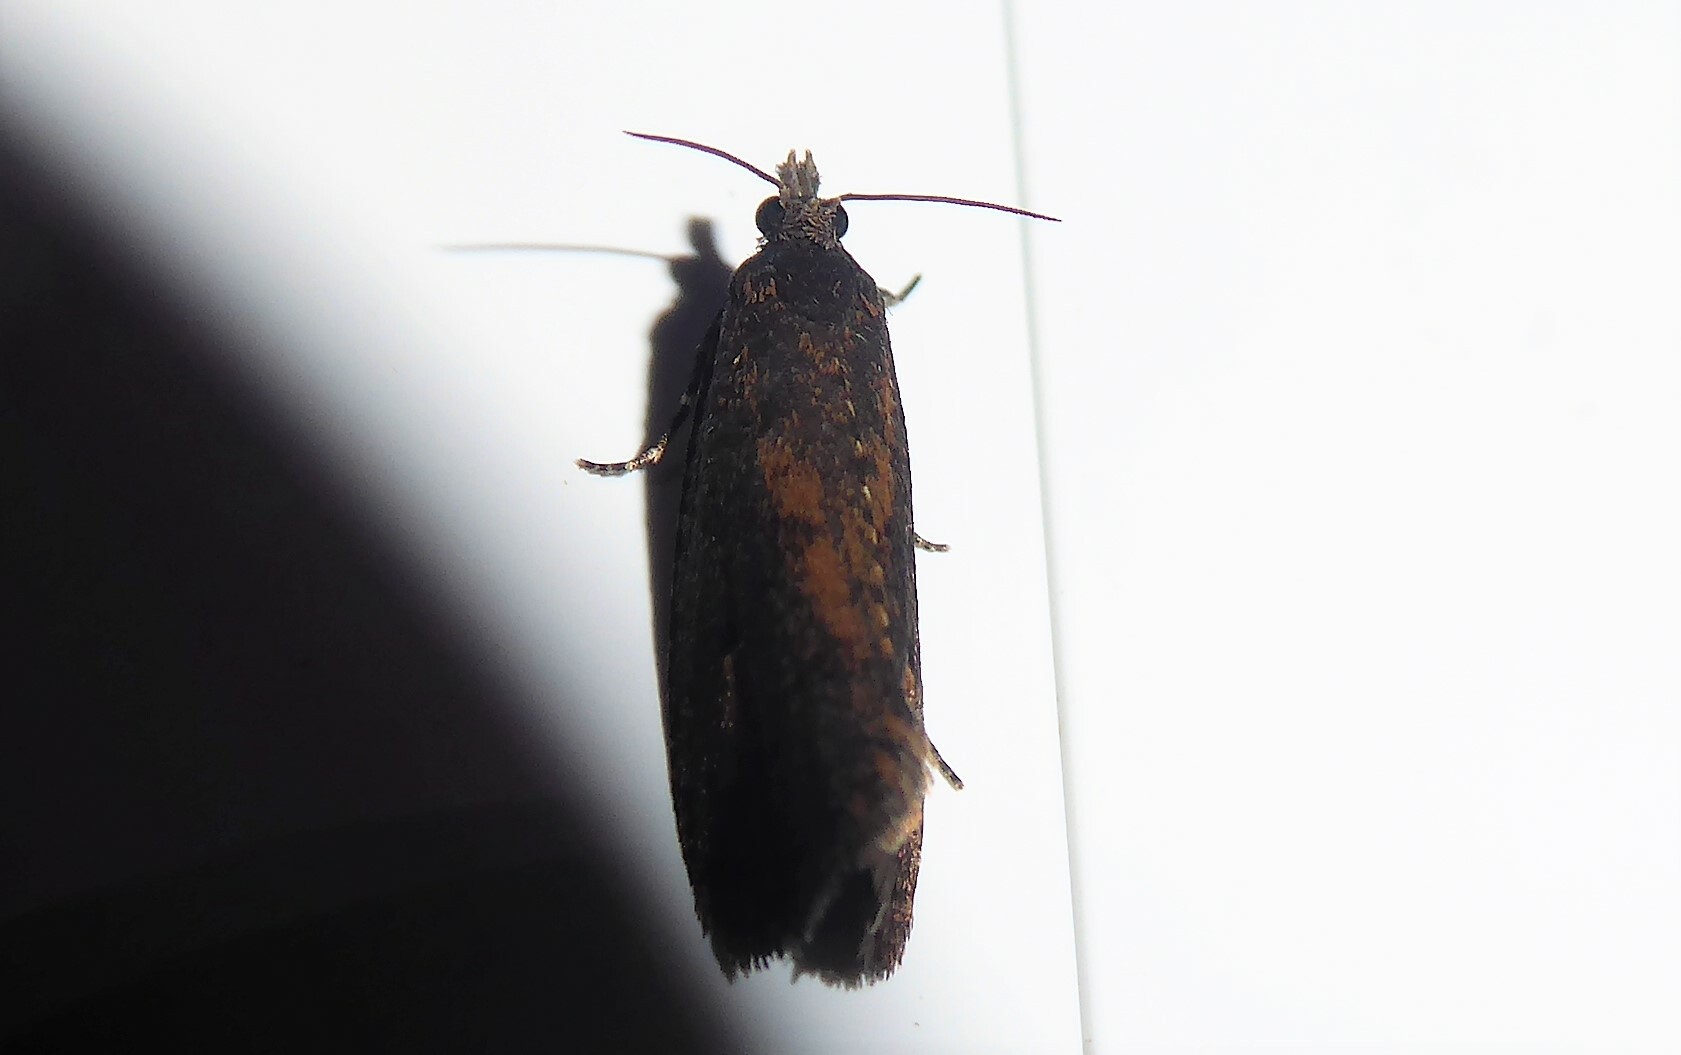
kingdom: Animalia
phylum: Arthropoda
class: Insecta
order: Lepidoptera
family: Tortricidae
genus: Cryptaspasma
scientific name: Cryptaspasma querula
